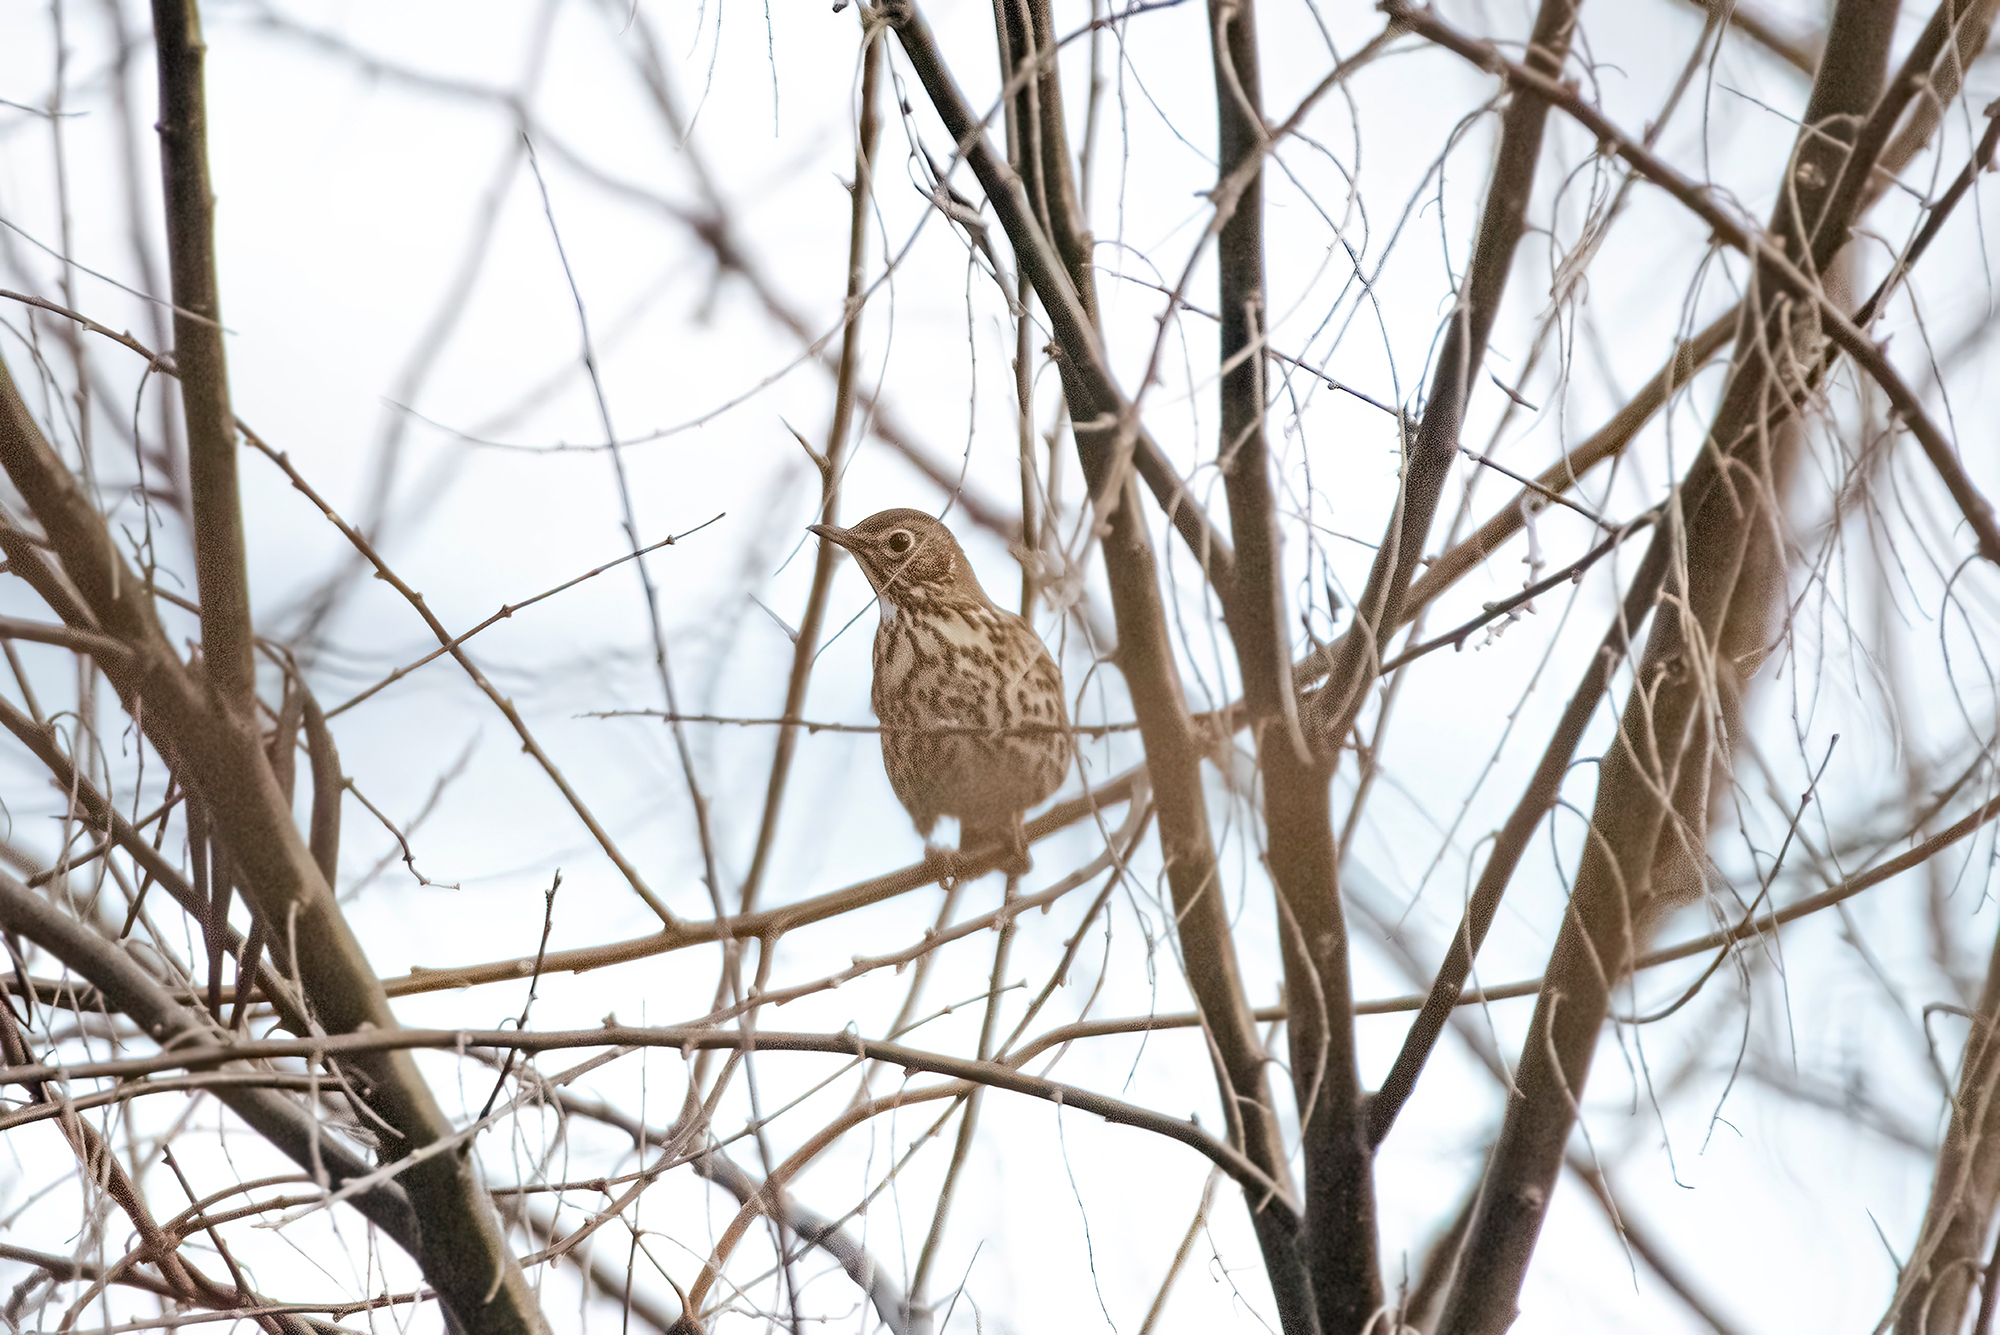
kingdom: Animalia
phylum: Chordata
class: Aves
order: Passeriformes
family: Turdidae
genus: Turdus
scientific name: Turdus philomelos
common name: Song thrush
